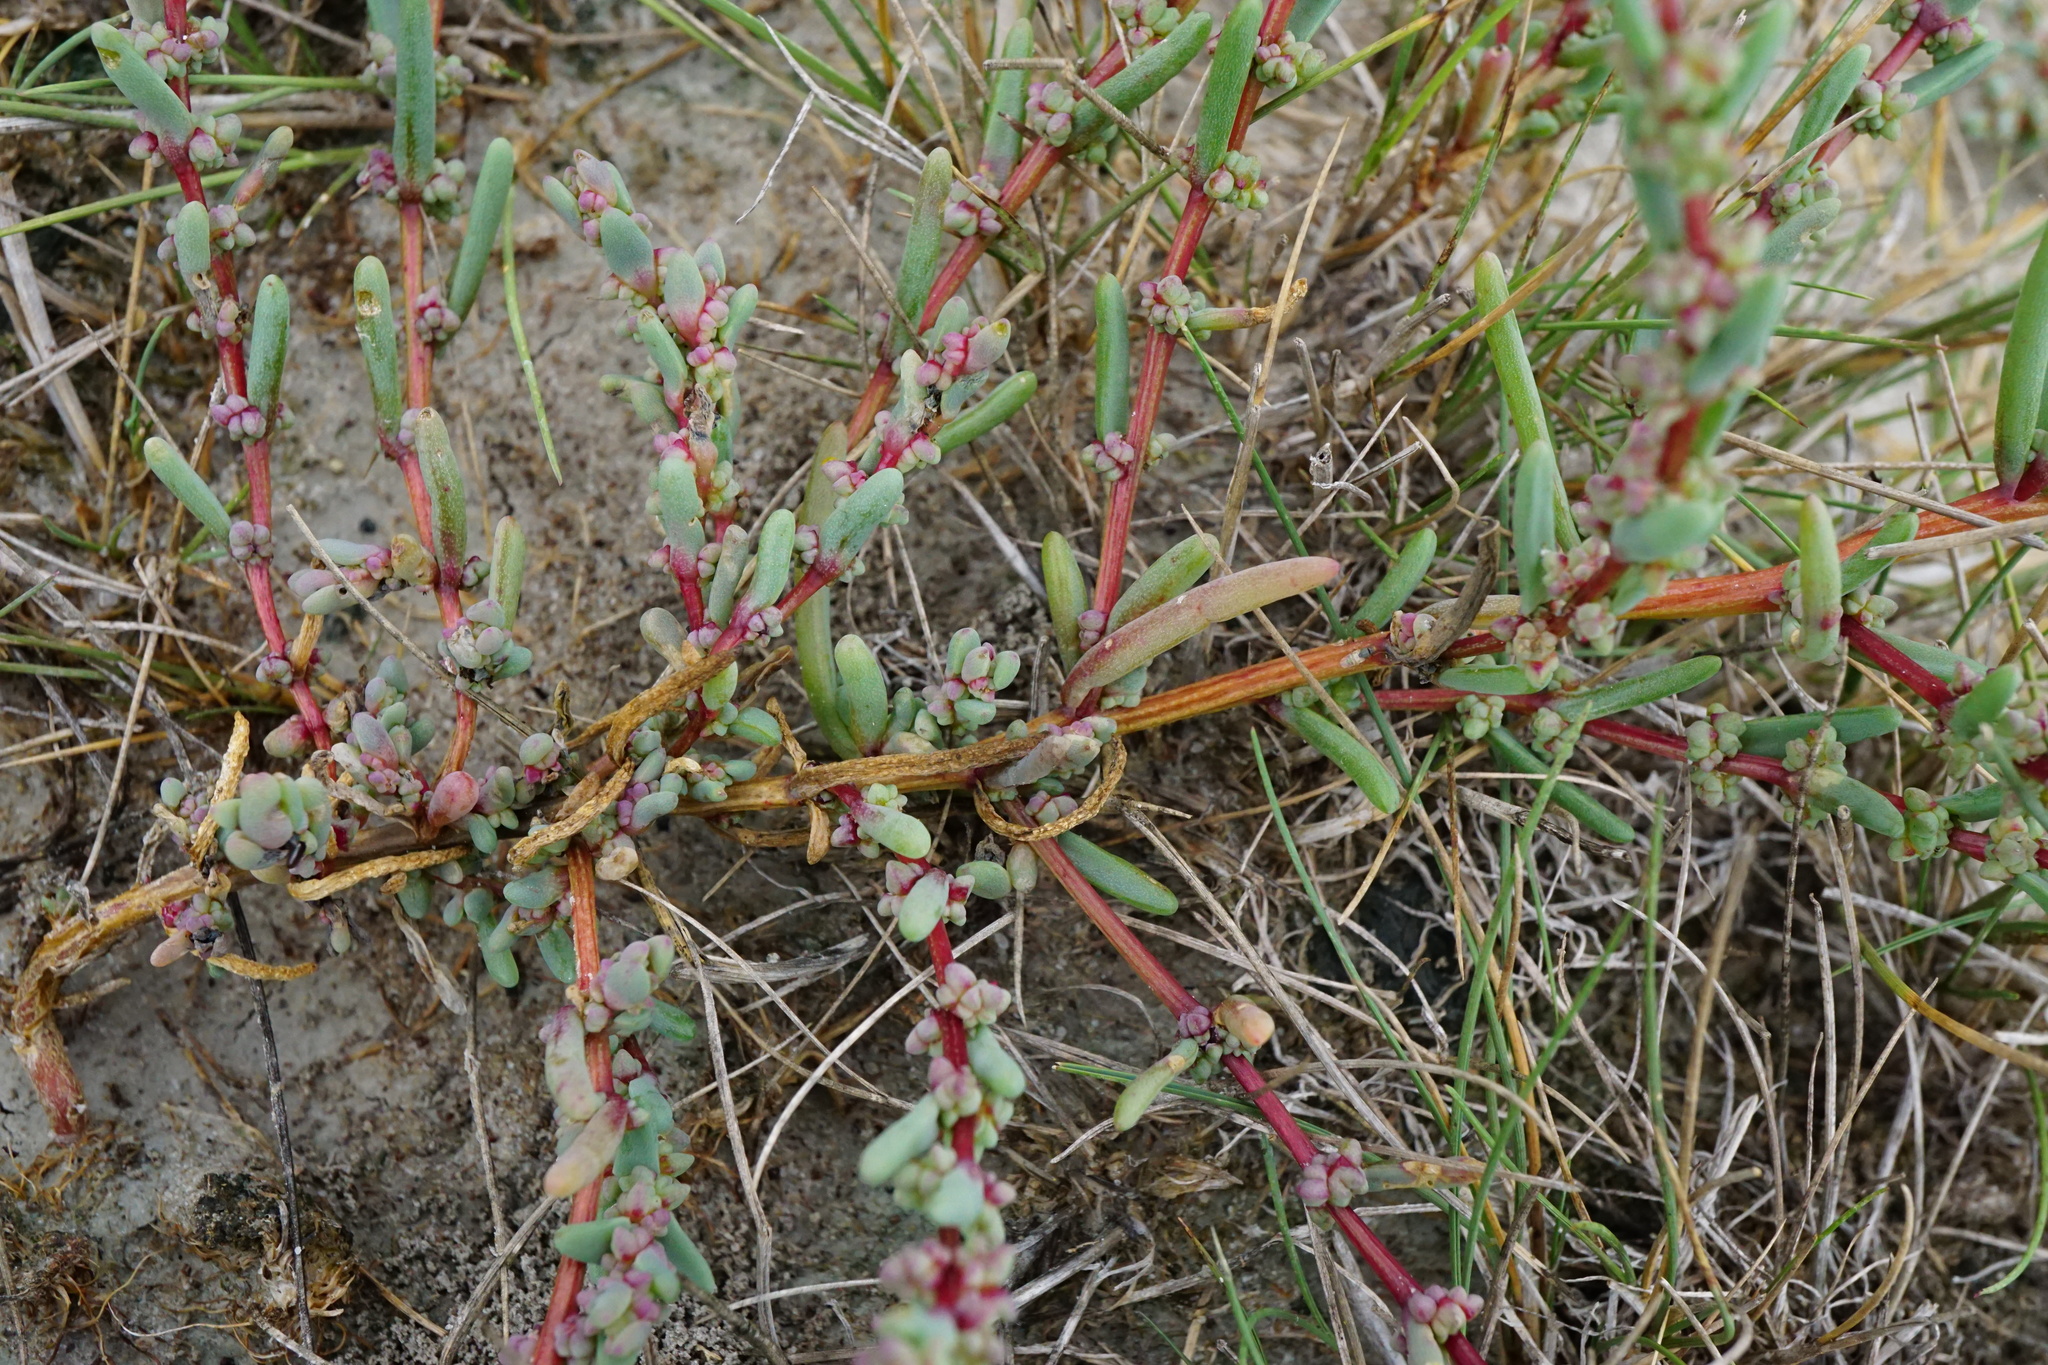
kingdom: Plantae
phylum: Tracheophyta
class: Magnoliopsida
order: Caryophyllales
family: Amaranthaceae
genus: Suaeda
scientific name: Suaeda pannonica
